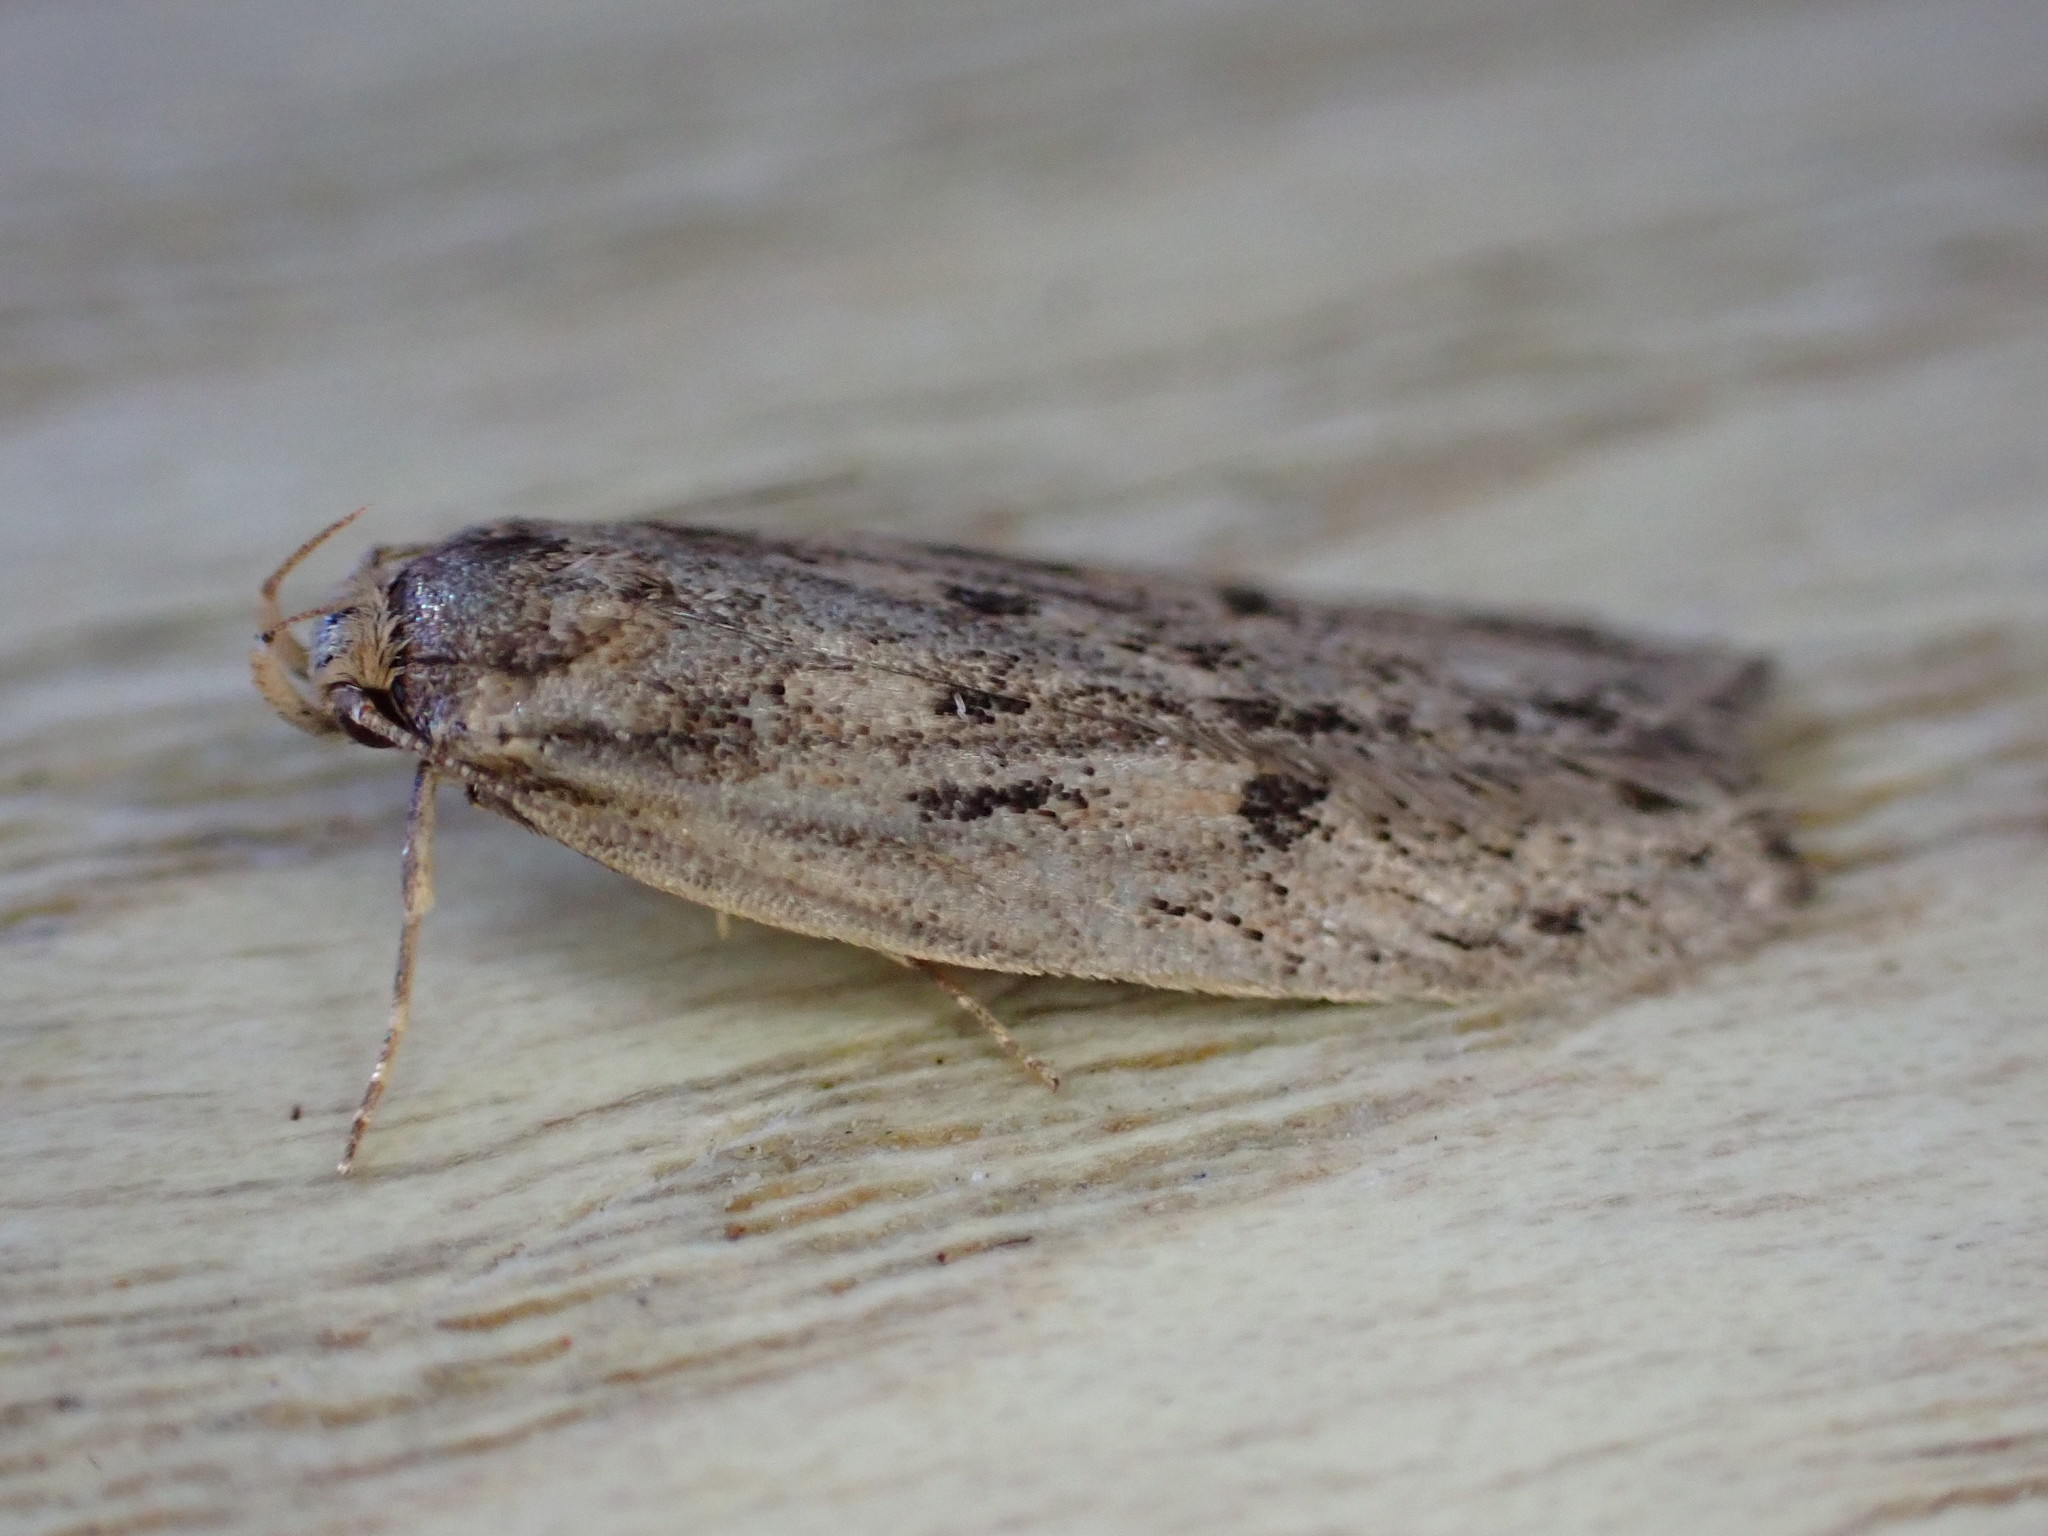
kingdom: Animalia
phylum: Arthropoda
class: Insecta
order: Lepidoptera
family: Oecophoridae
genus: Hofmannophila
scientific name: Hofmannophila pseudospretella
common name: Brown house moth
